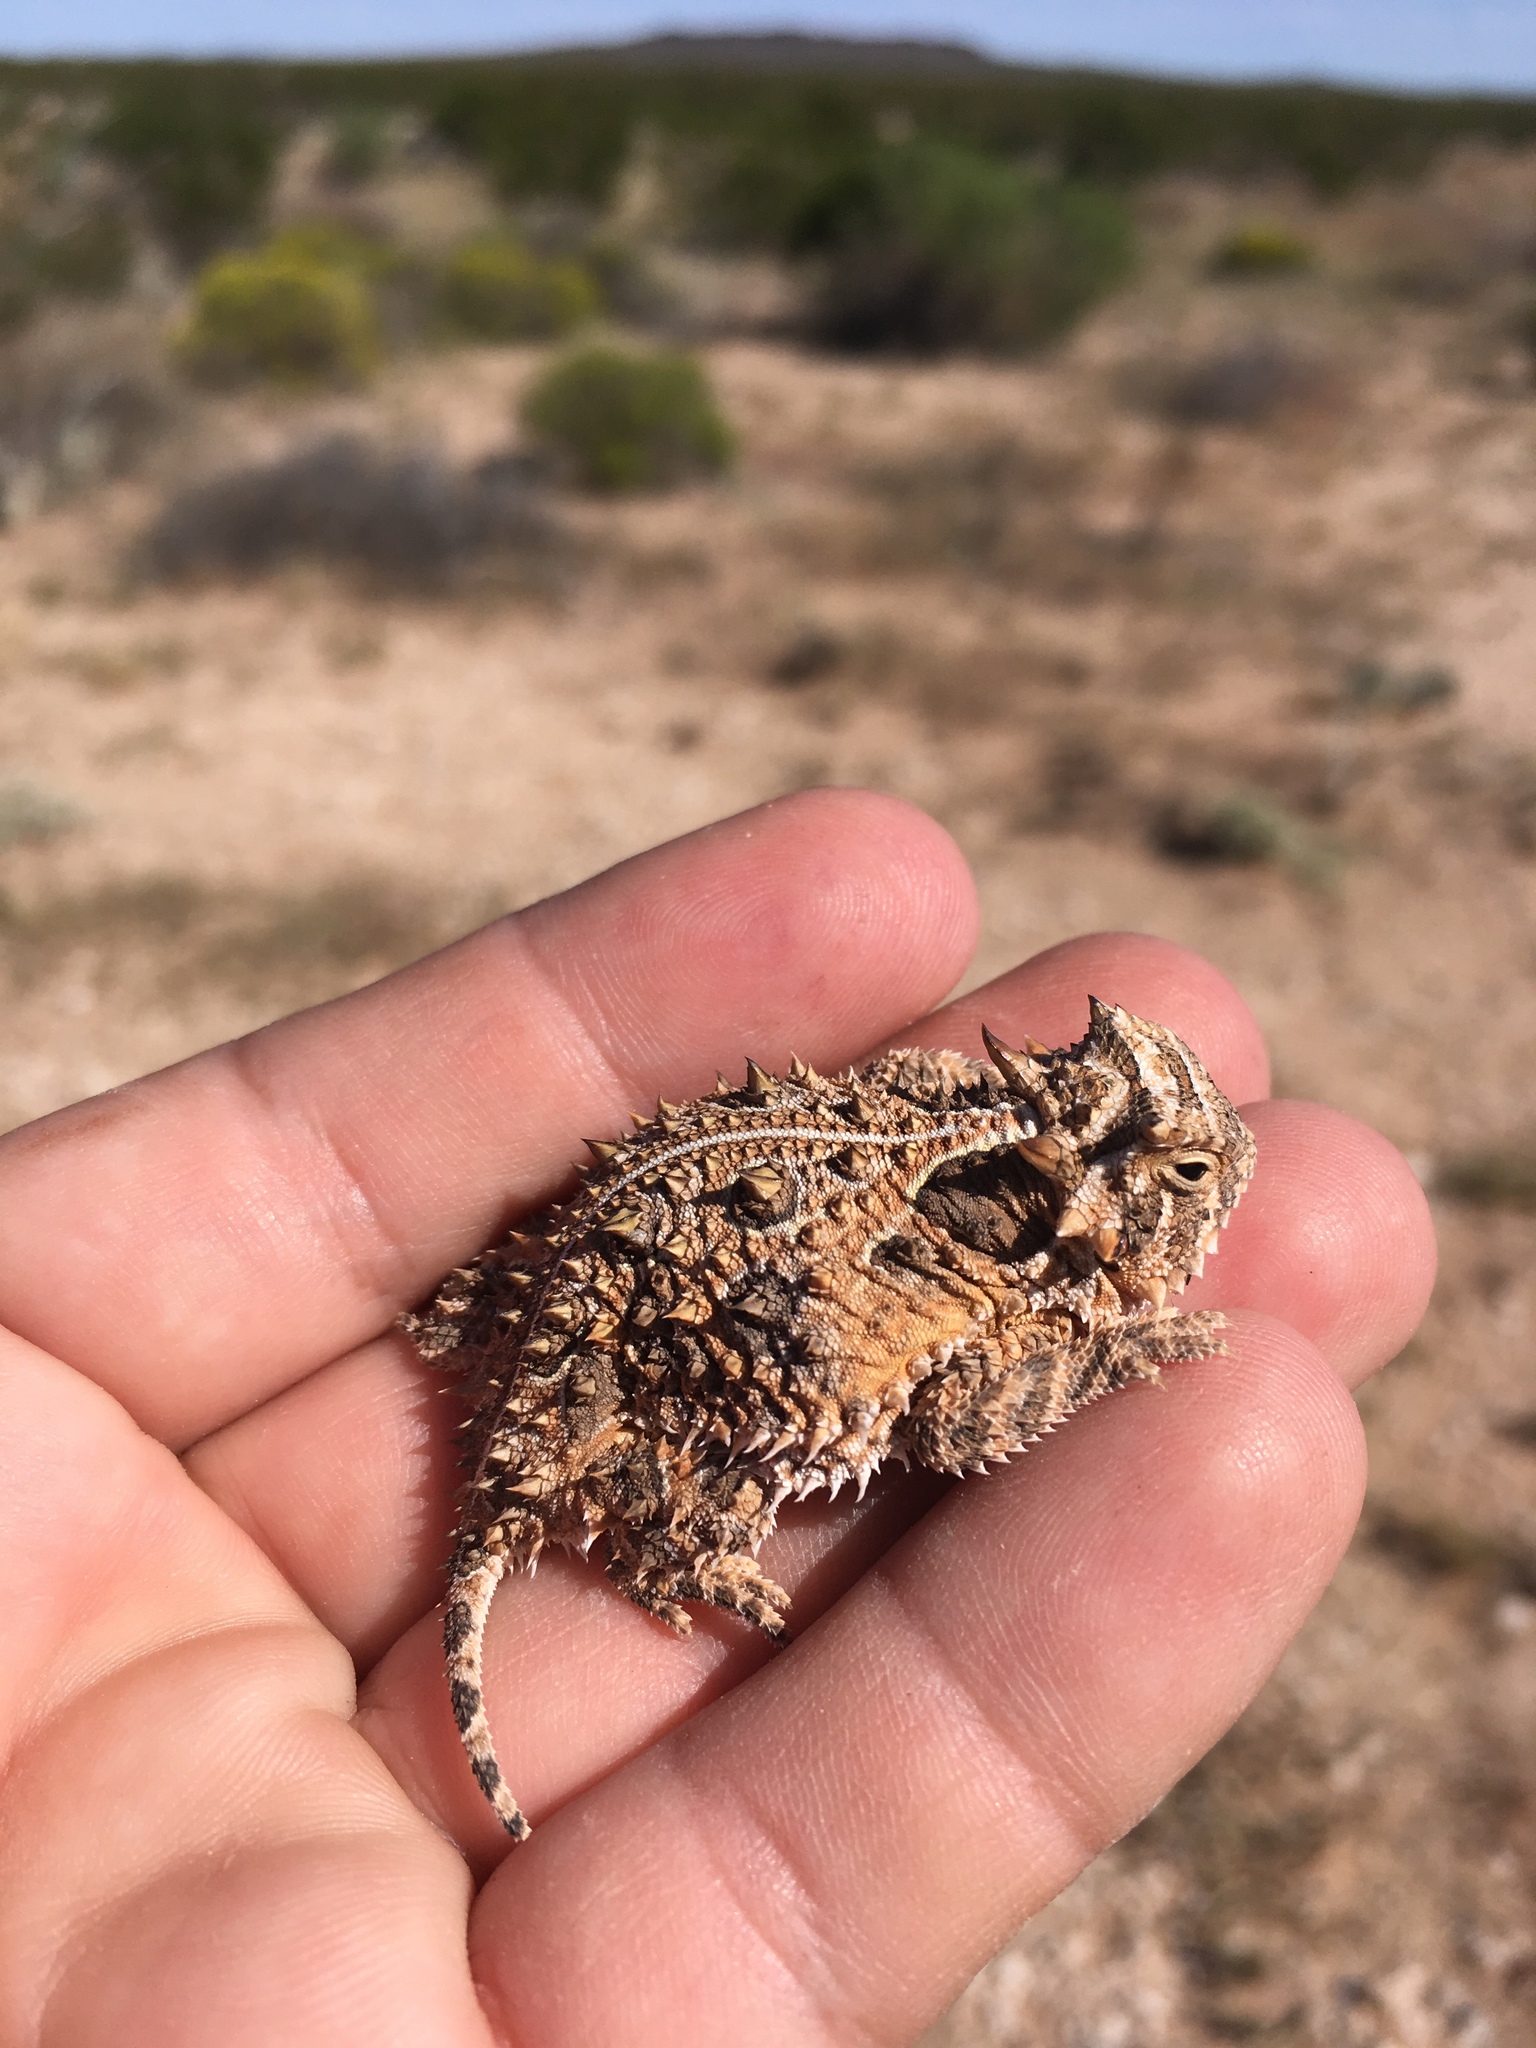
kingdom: Animalia
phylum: Chordata
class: Squamata
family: Phrynosomatidae
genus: Phrynosoma
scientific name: Phrynosoma cornutum
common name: Texas horned lizard
